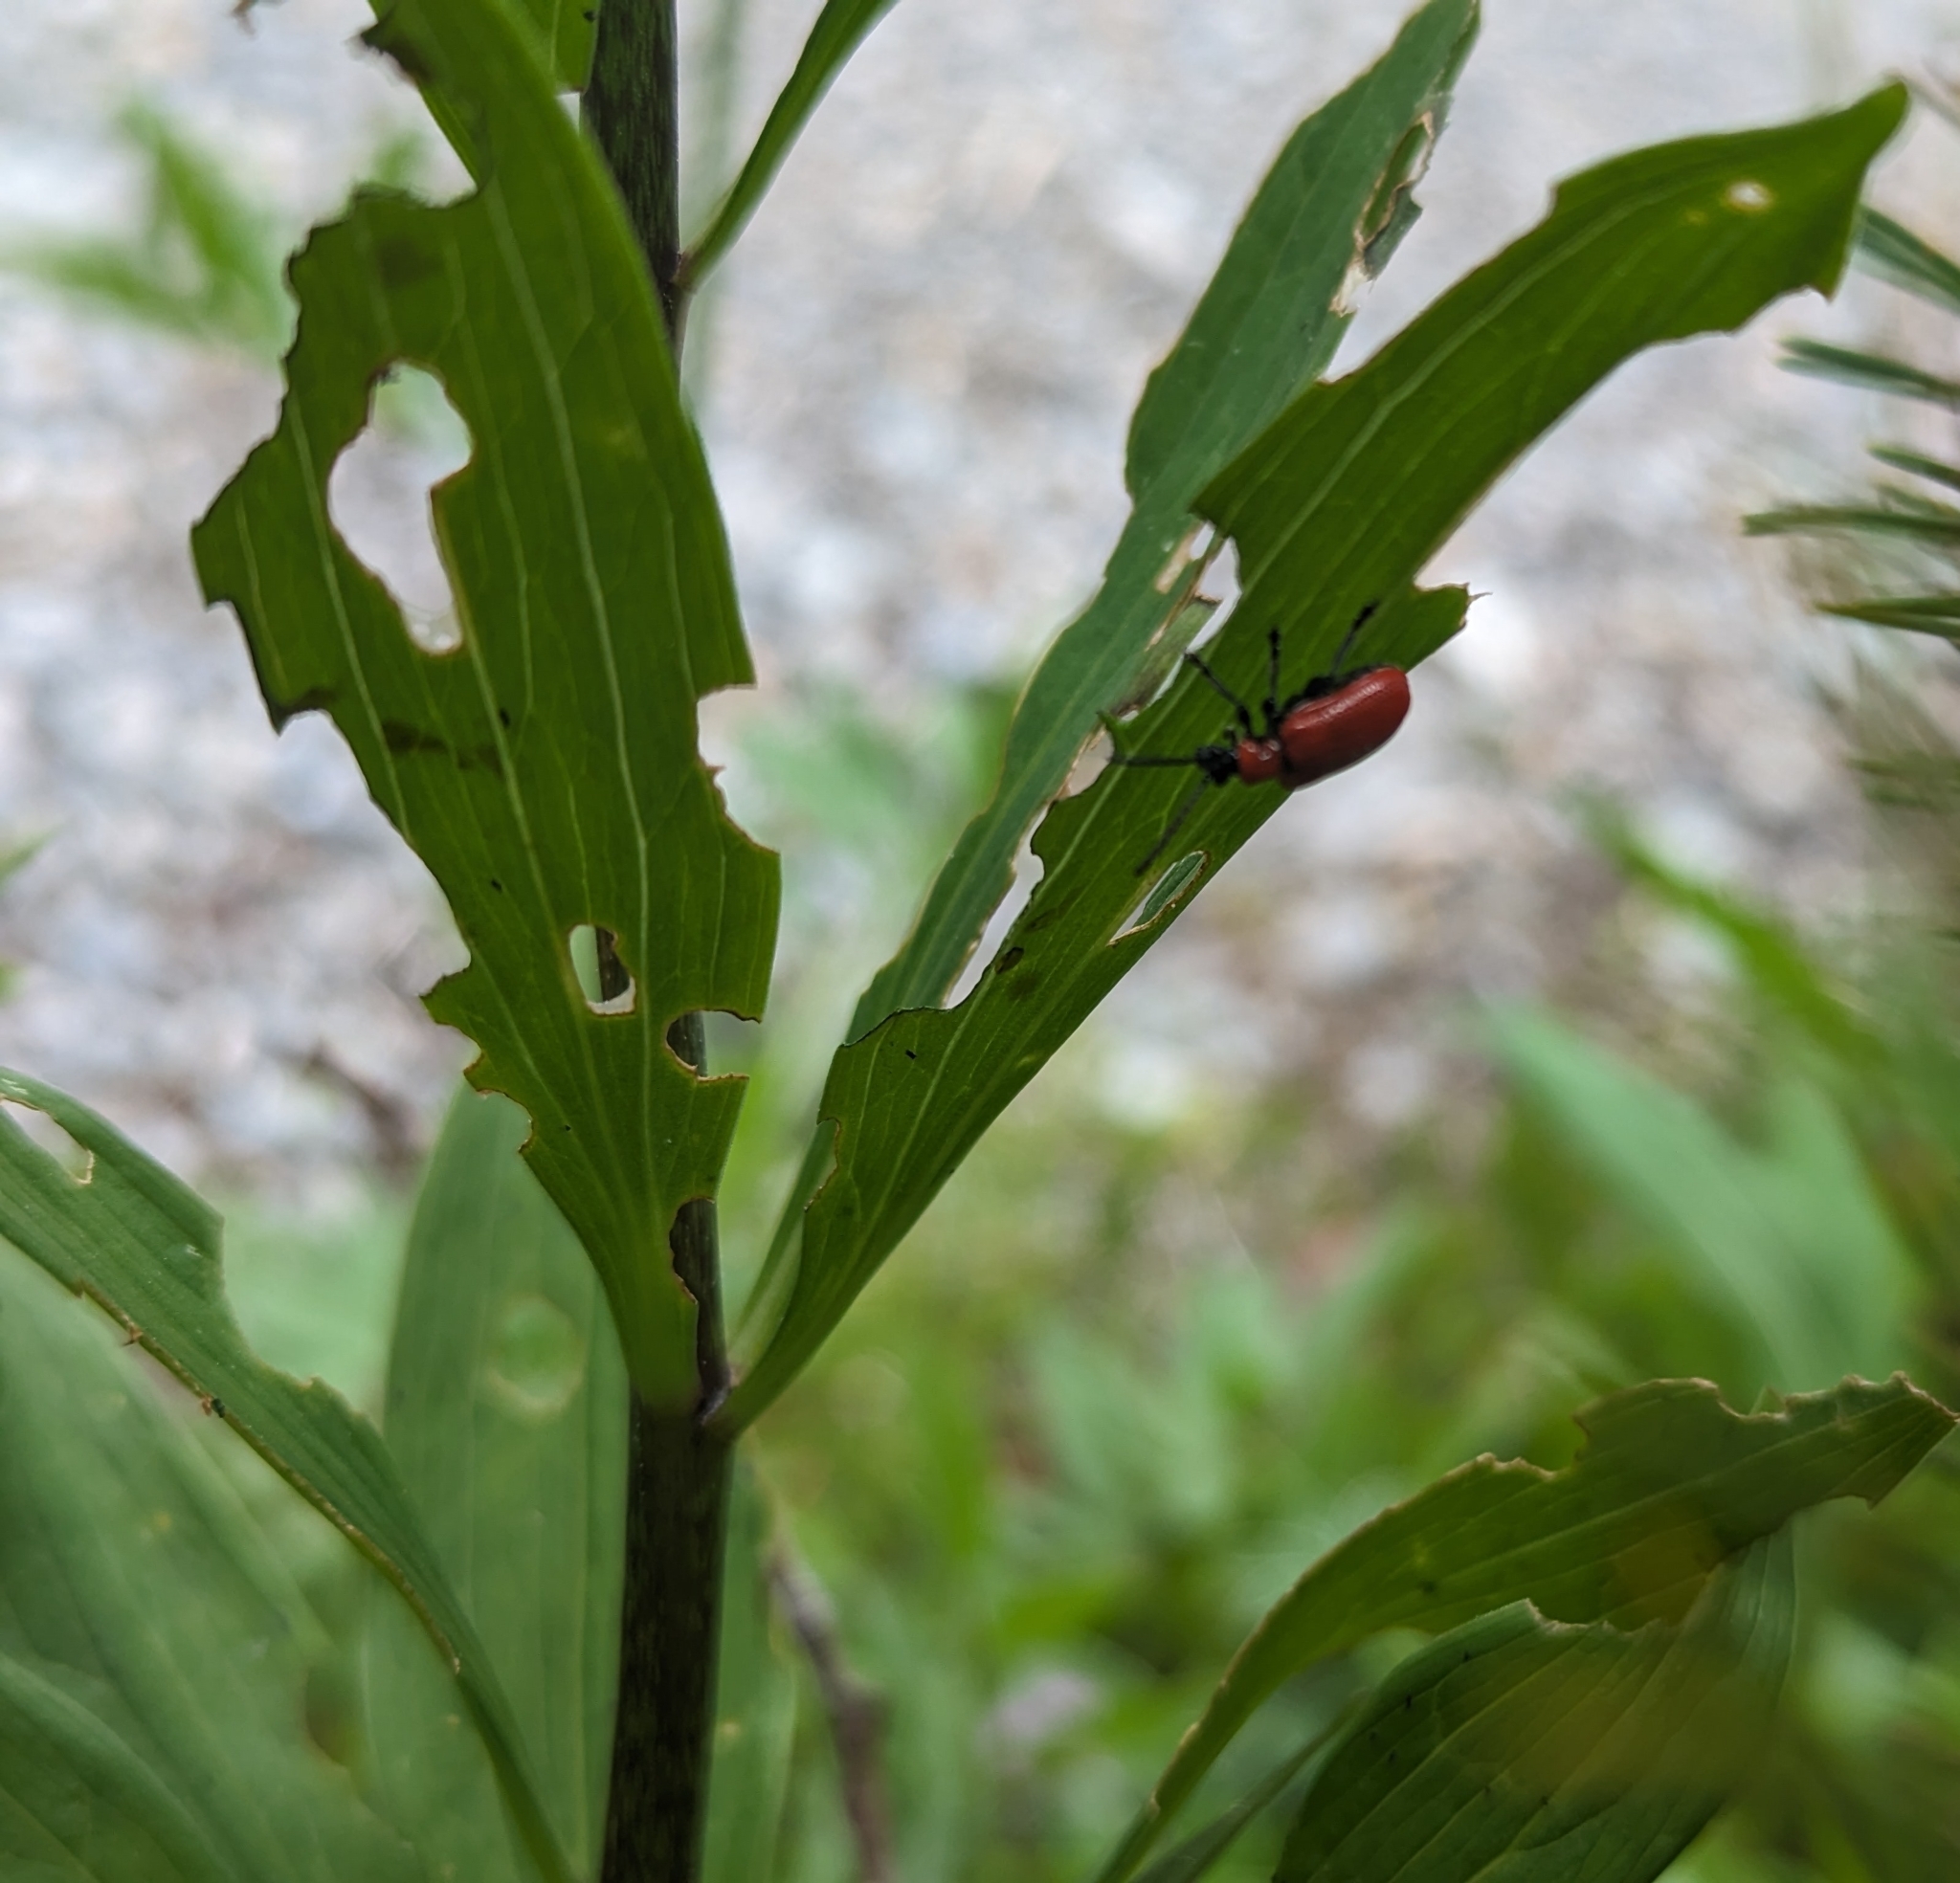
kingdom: Animalia
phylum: Arthropoda
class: Insecta
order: Coleoptera
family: Chrysomelidae
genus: Lilioceris
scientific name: Lilioceris lilii
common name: Lily beetle
